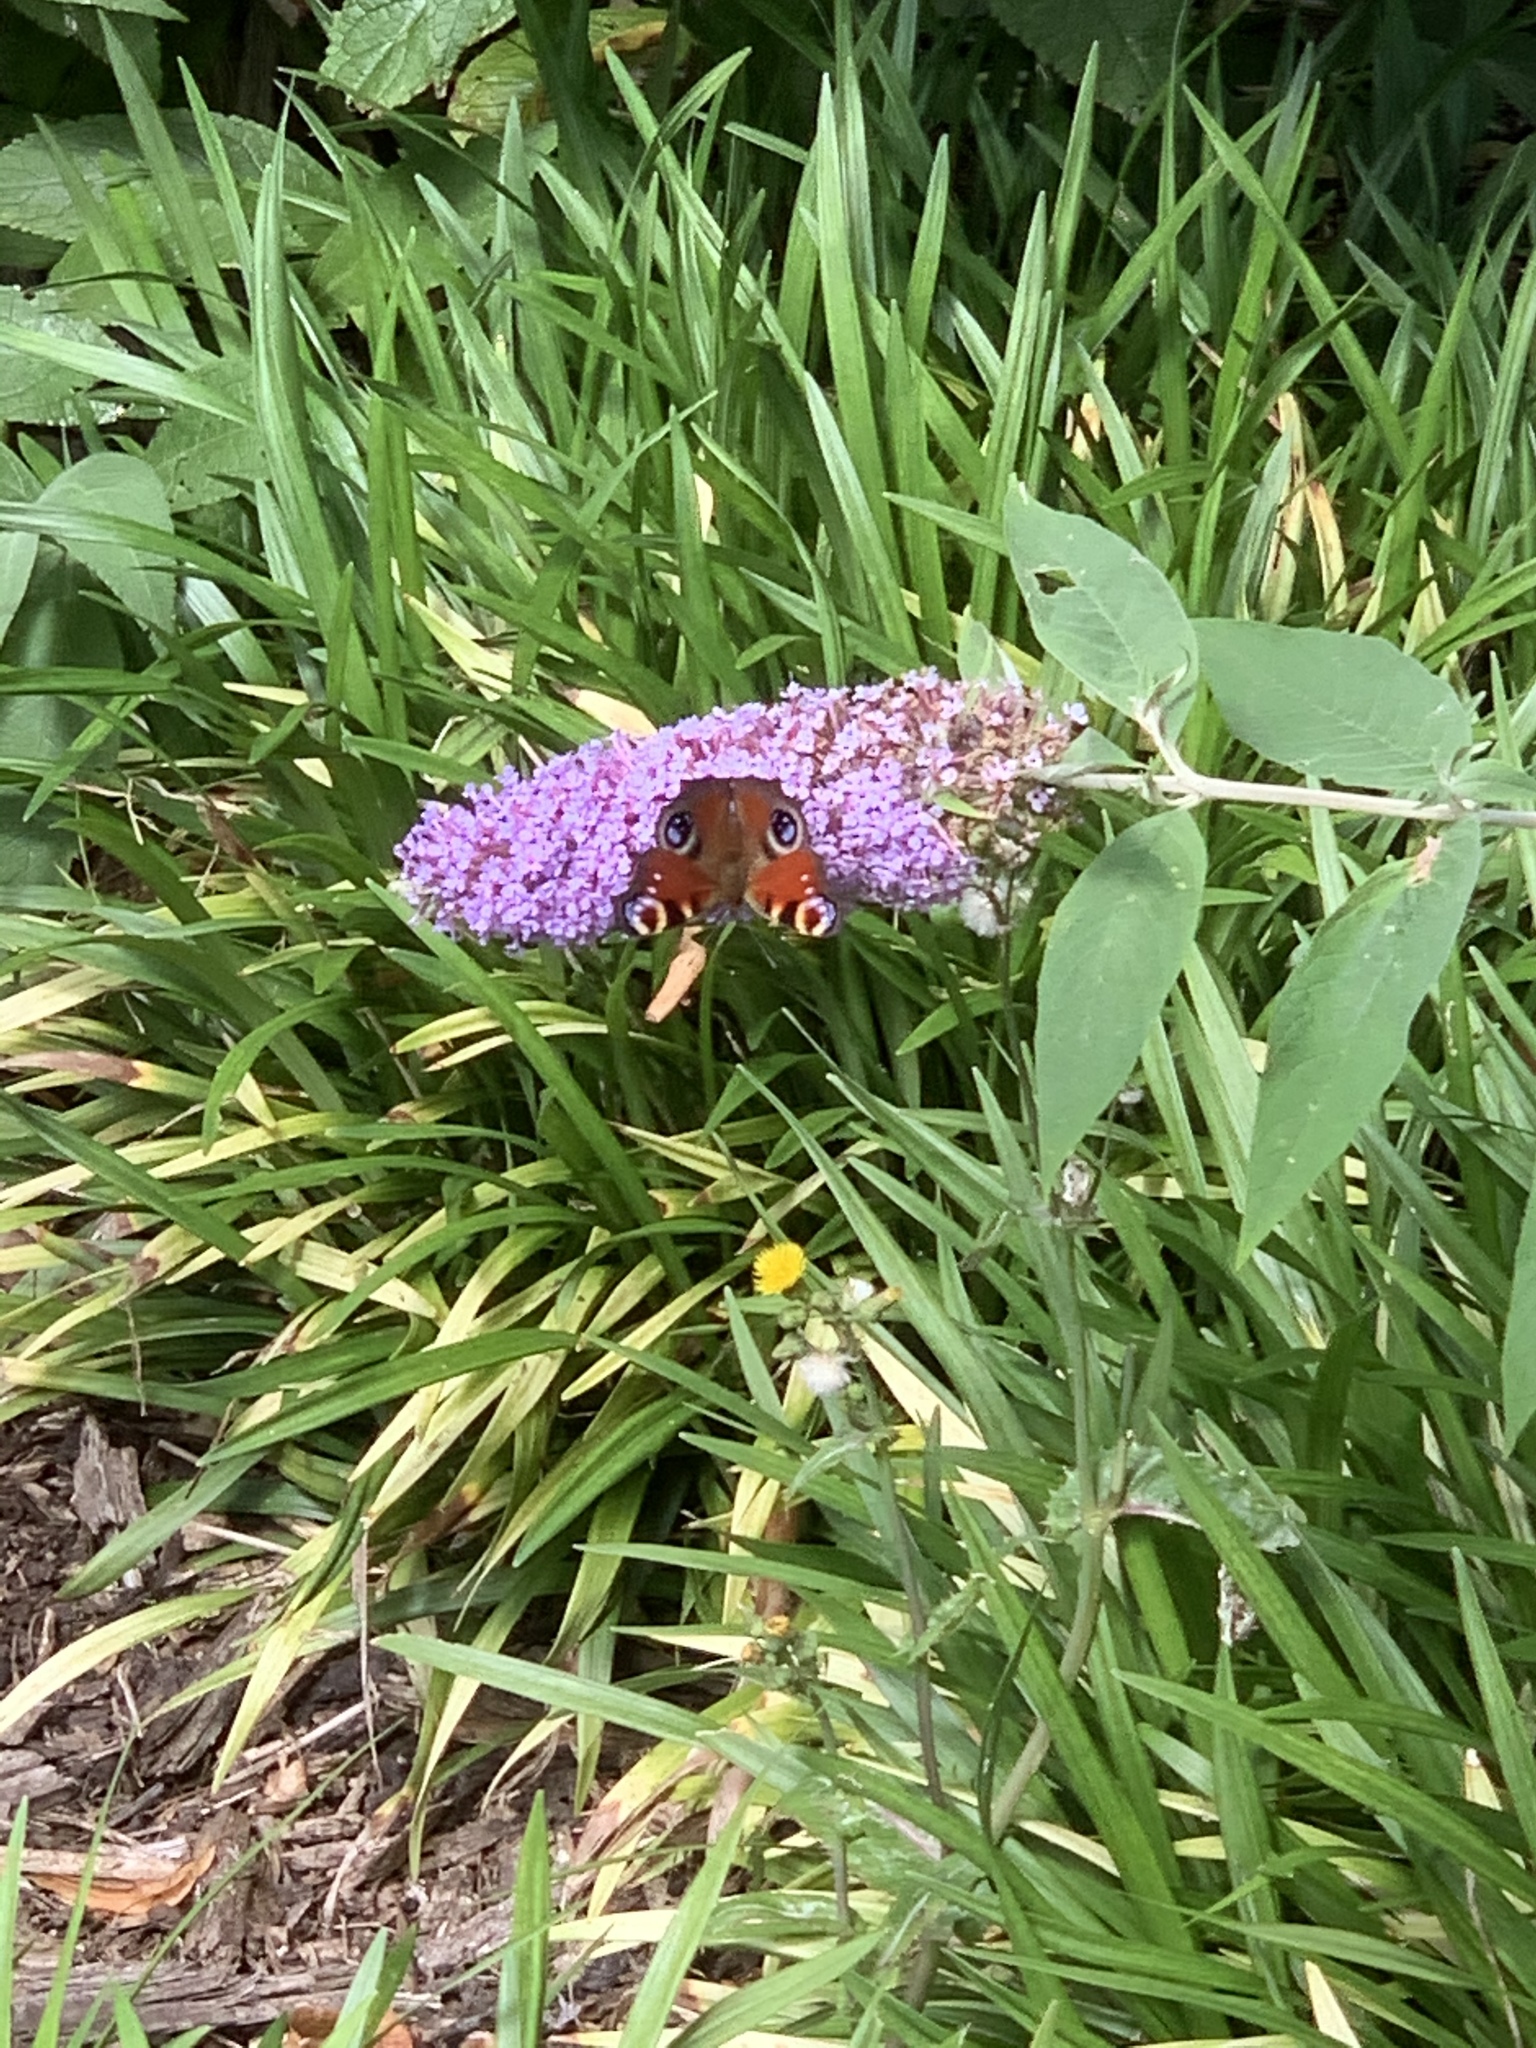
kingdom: Animalia
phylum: Arthropoda
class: Insecta
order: Lepidoptera
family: Nymphalidae
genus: Aglais
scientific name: Aglais io
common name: Peacock
